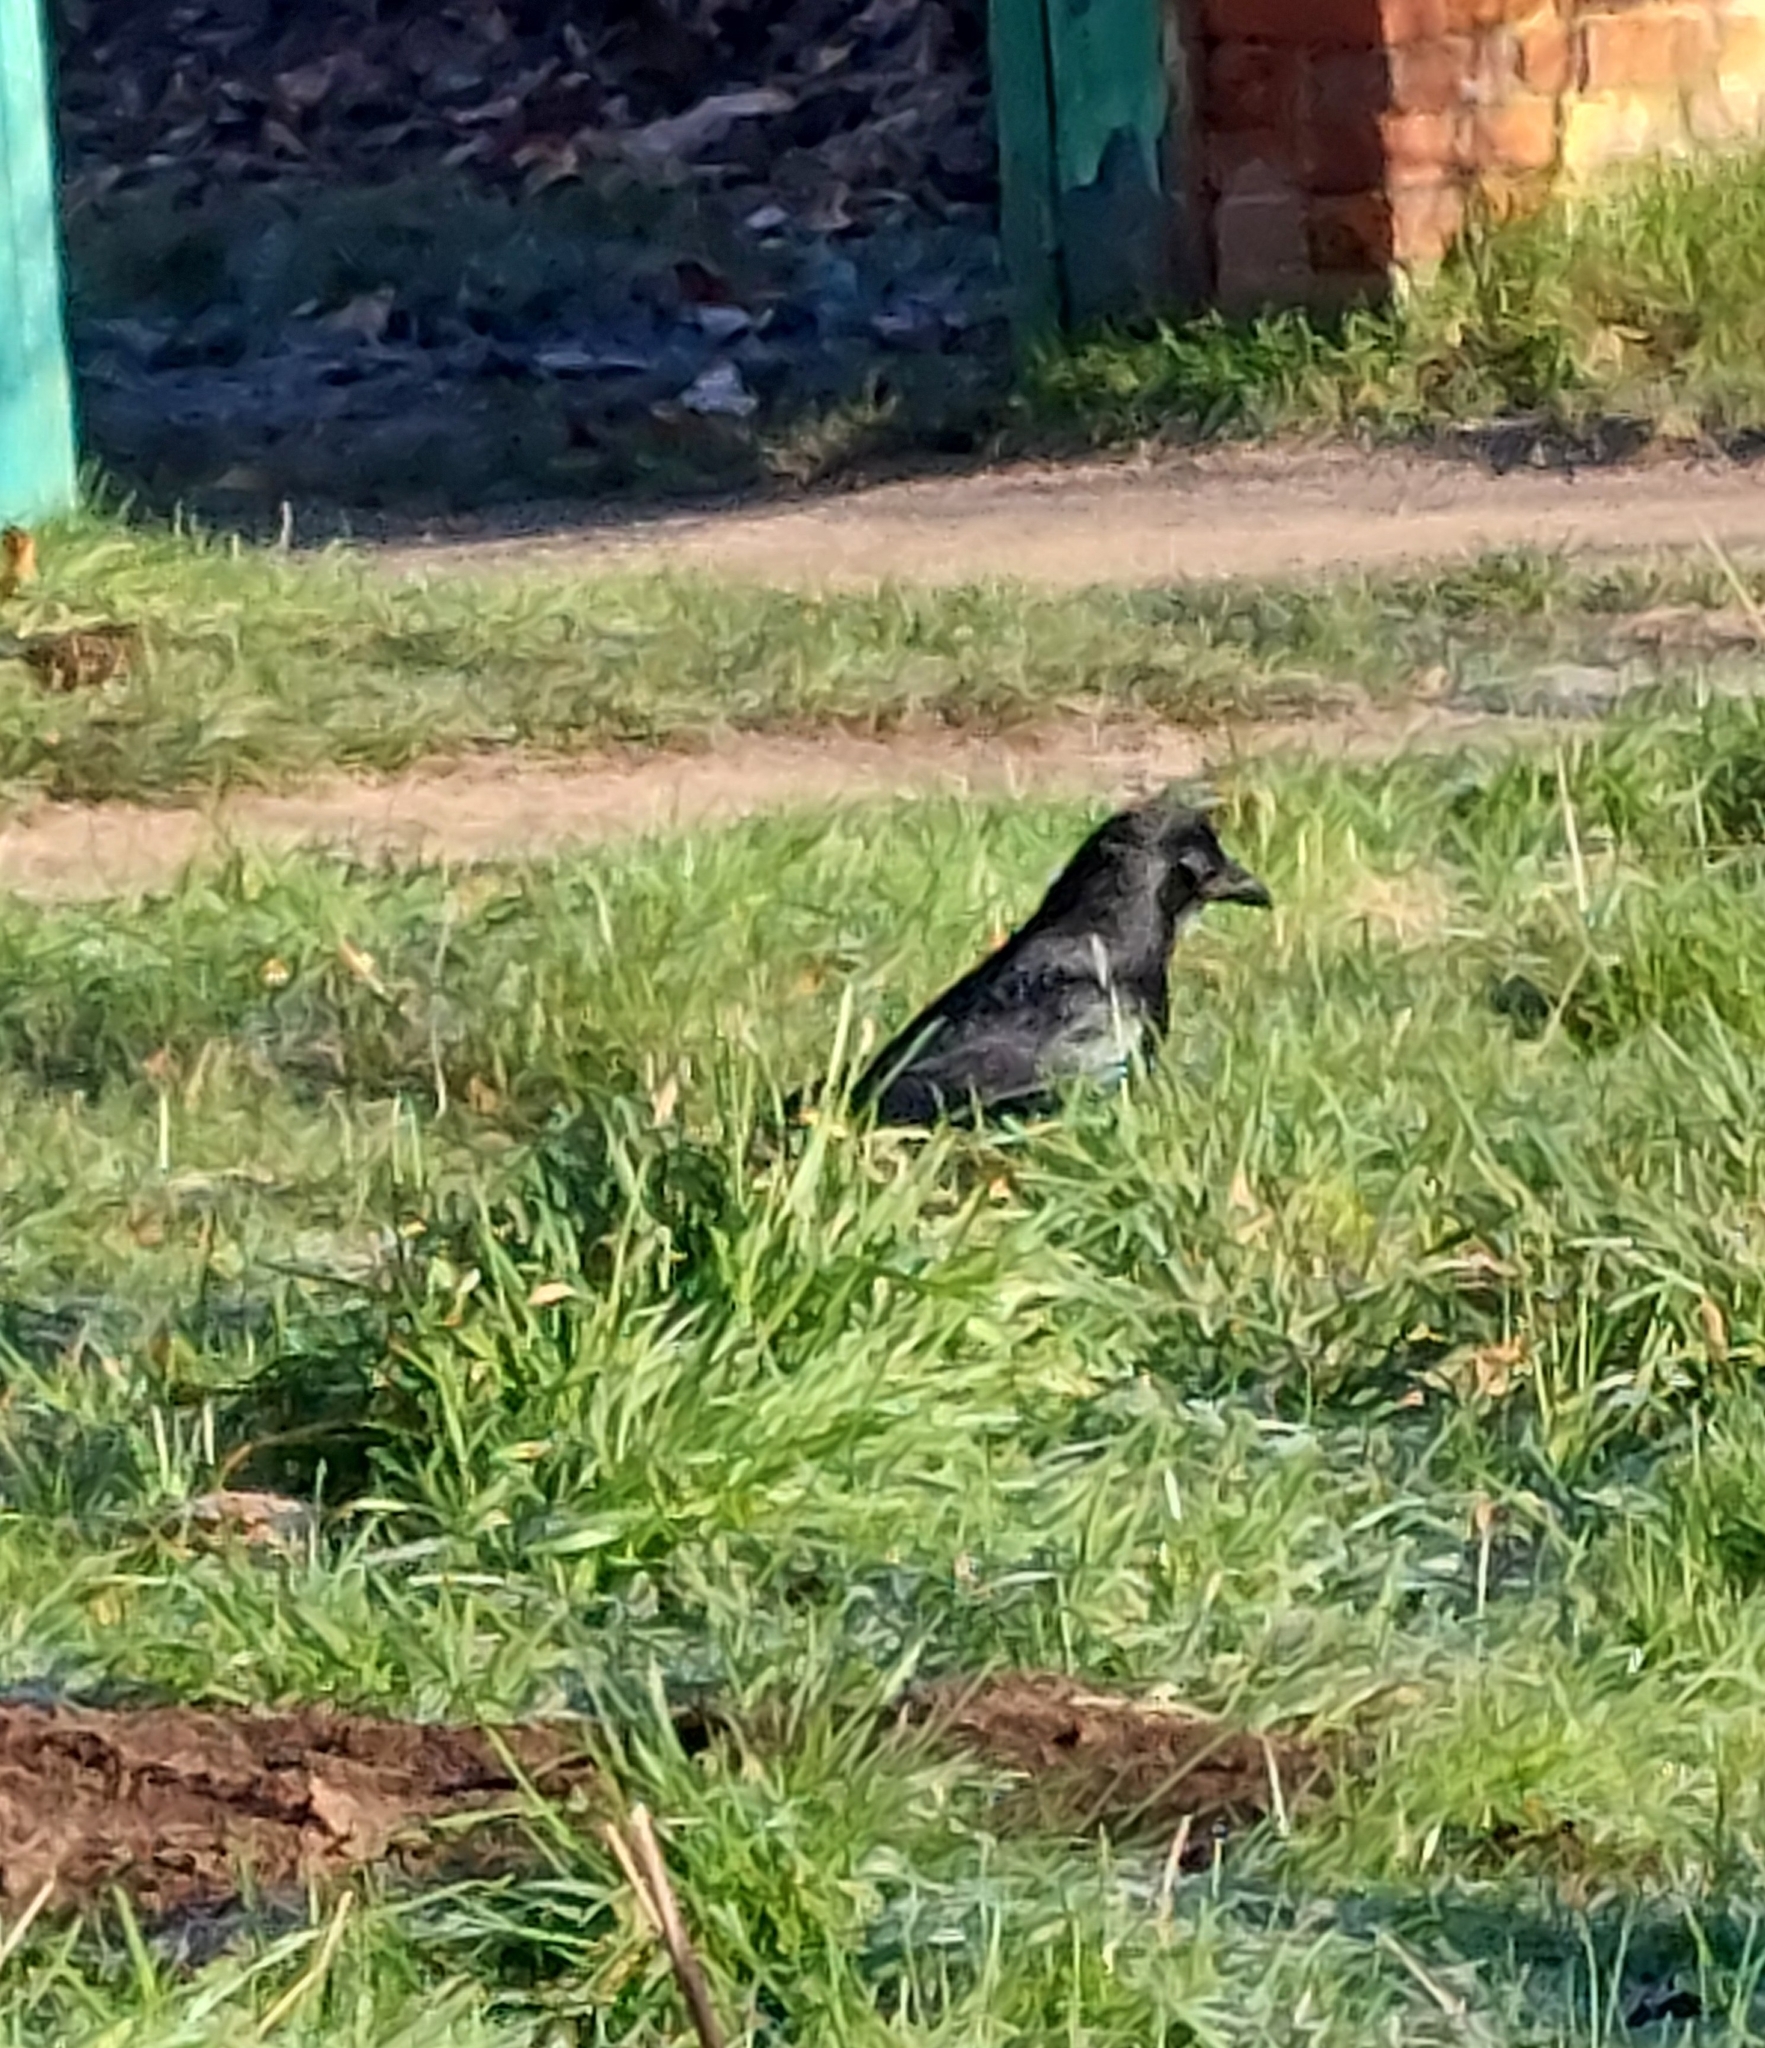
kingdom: Animalia
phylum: Chordata
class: Aves
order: Passeriformes
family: Corvidae
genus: Corvus
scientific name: Corvus corone
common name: Carrion crow
